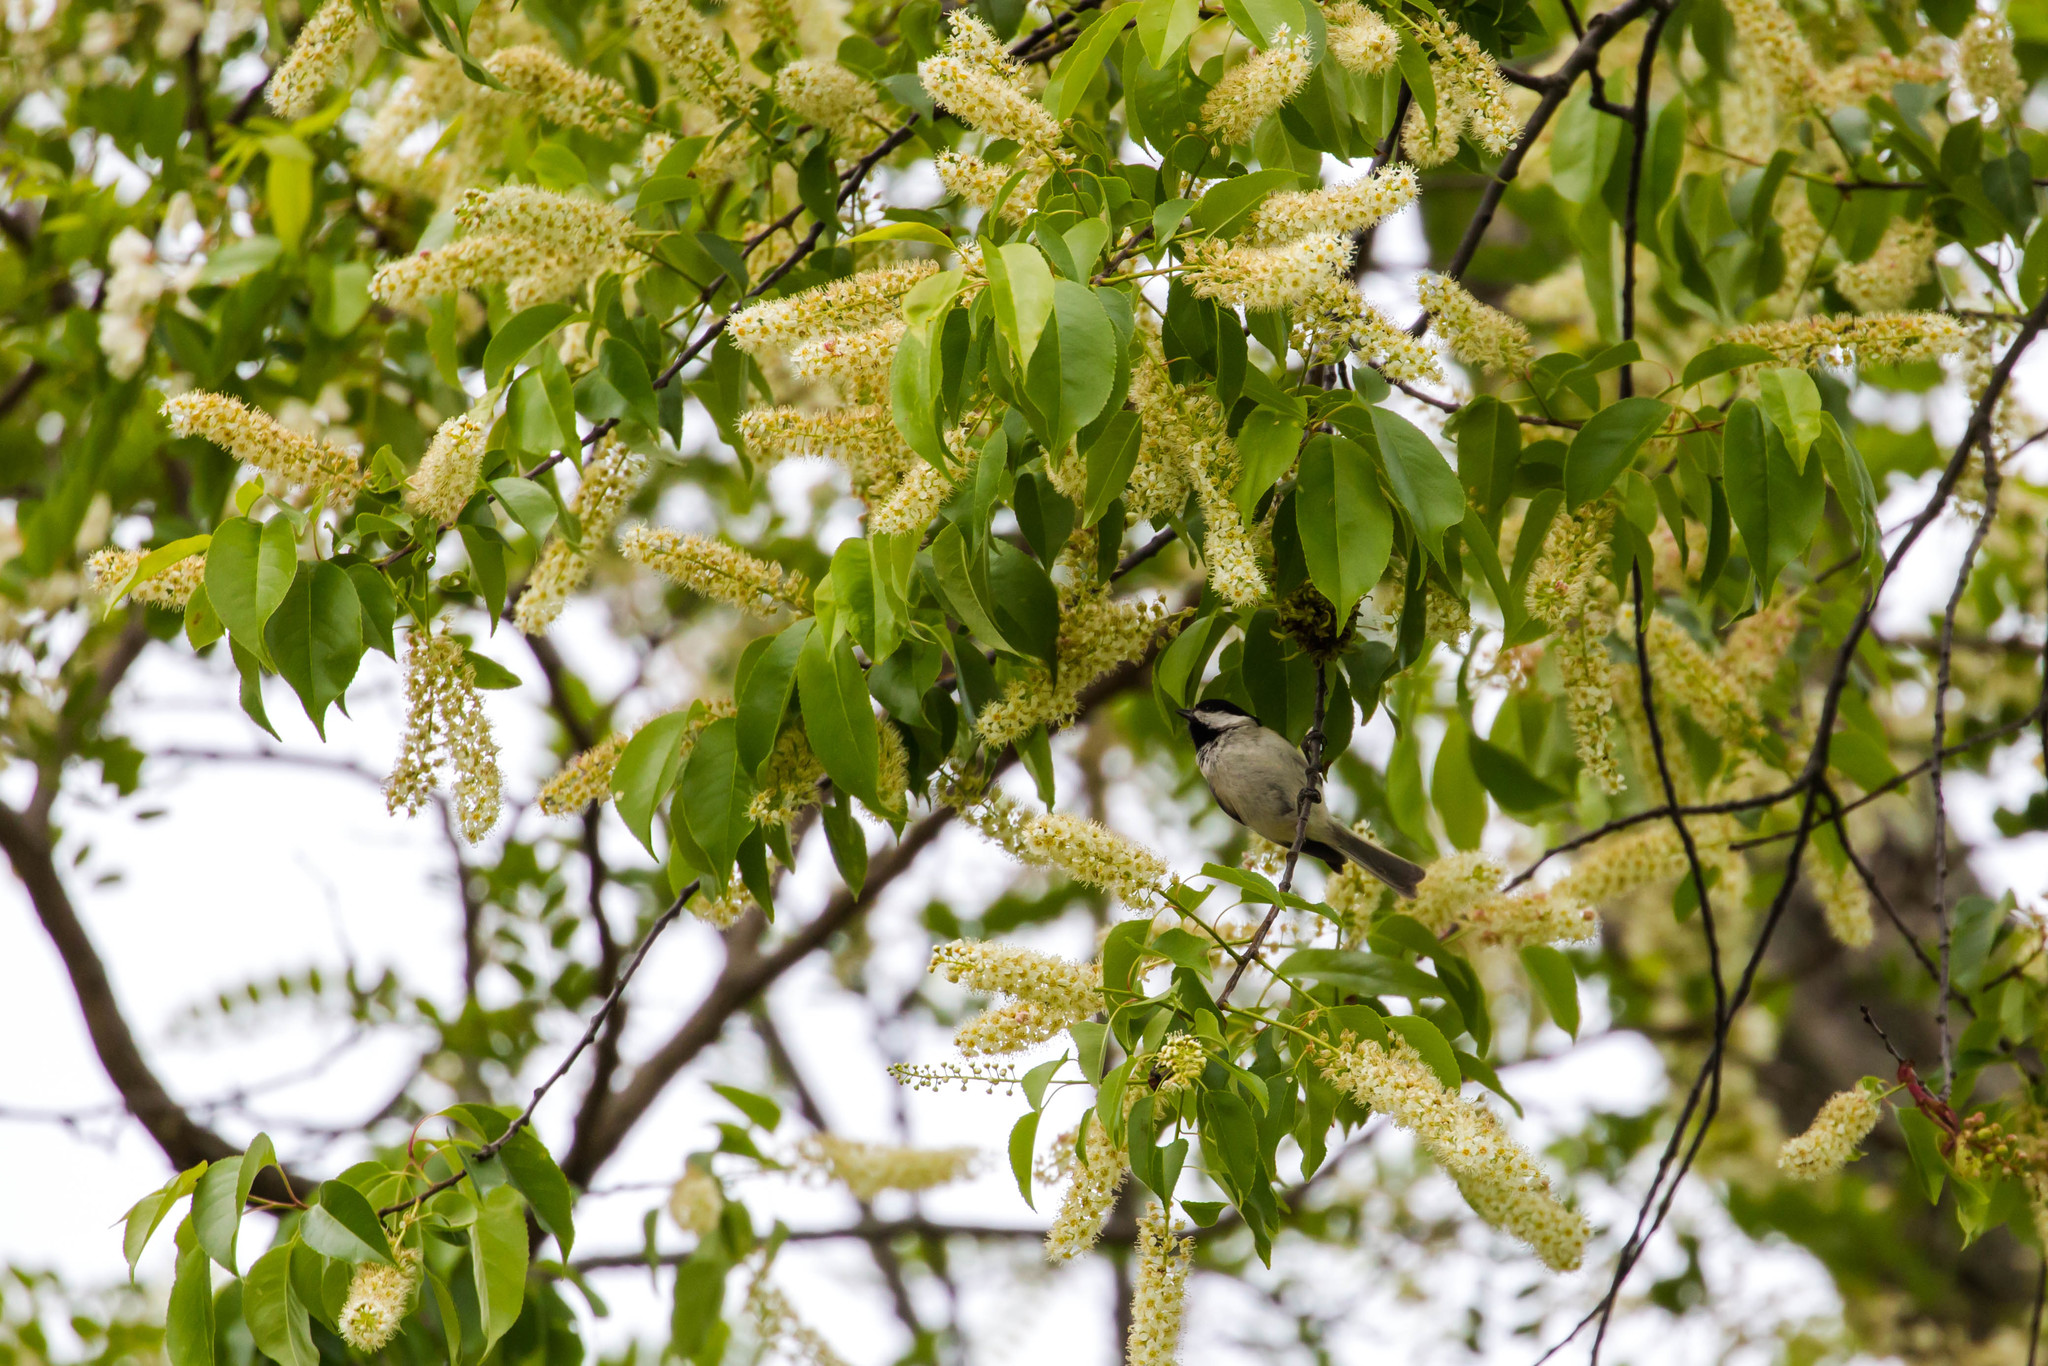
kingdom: Animalia
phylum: Chordata
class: Aves
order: Passeriformes
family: Paridae
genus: Poecile
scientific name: Poecile carolinensis
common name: Carolina chickadee
